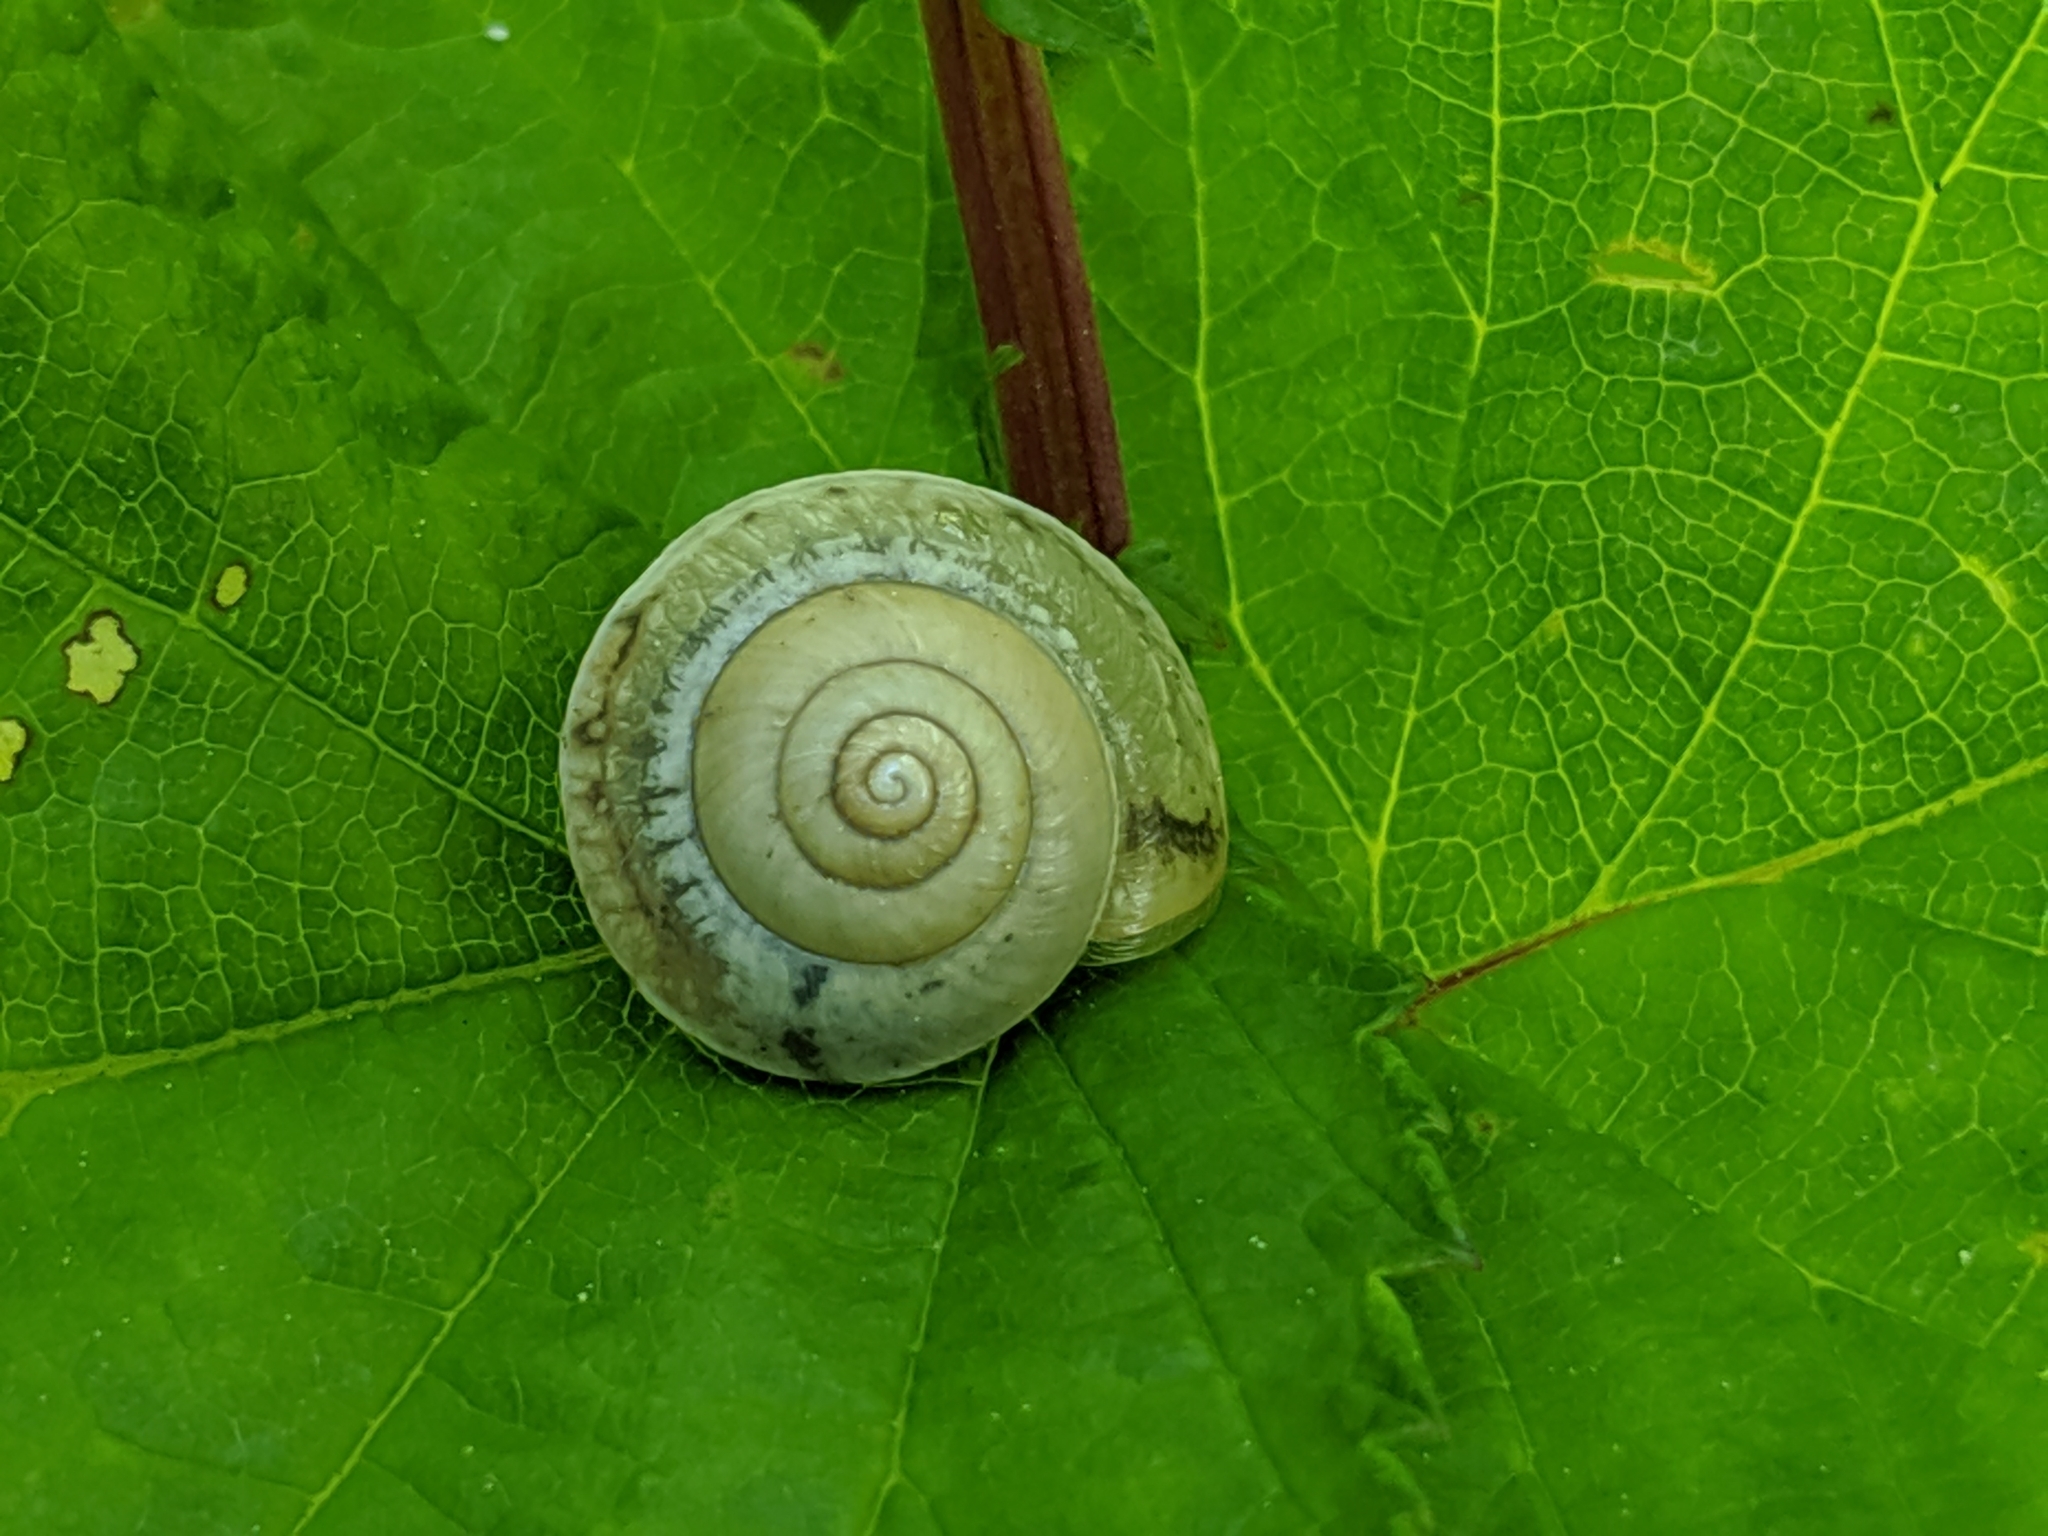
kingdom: Animalia
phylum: Mollusca
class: Gastropoda
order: Stylommatophora
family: Hygromiidae
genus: Hygromia
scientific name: Hygromia cinctella
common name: Girdled snail
